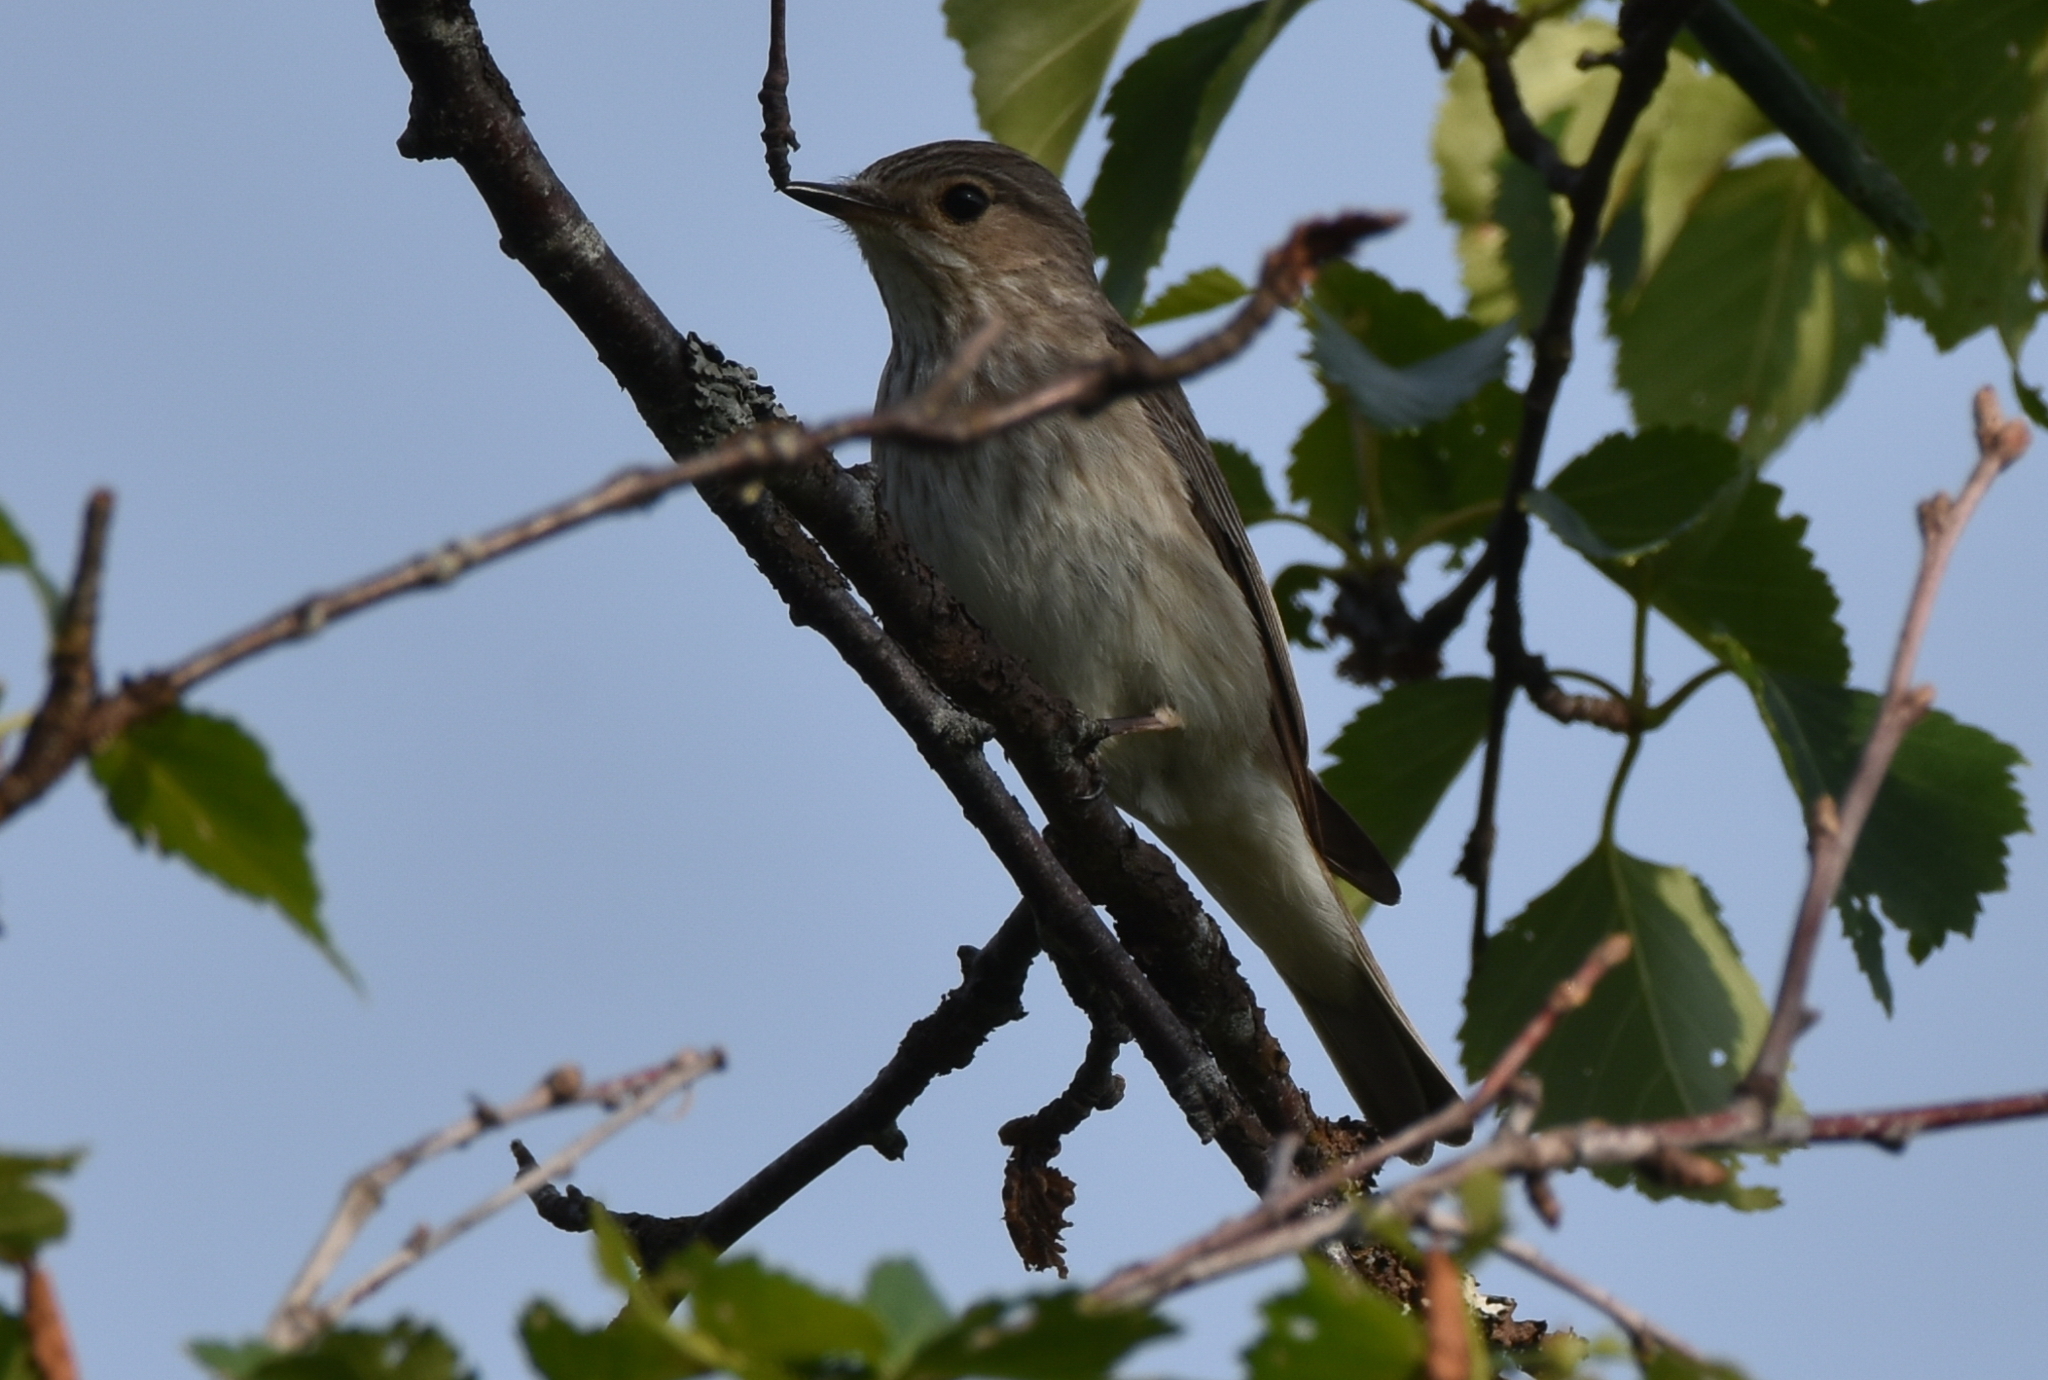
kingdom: Animalia
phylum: Chordata
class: Aves
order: Passeriformes
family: Muscicapidae
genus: Muscicapa
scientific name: Muscicapa striata
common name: Spotted flycatcher
